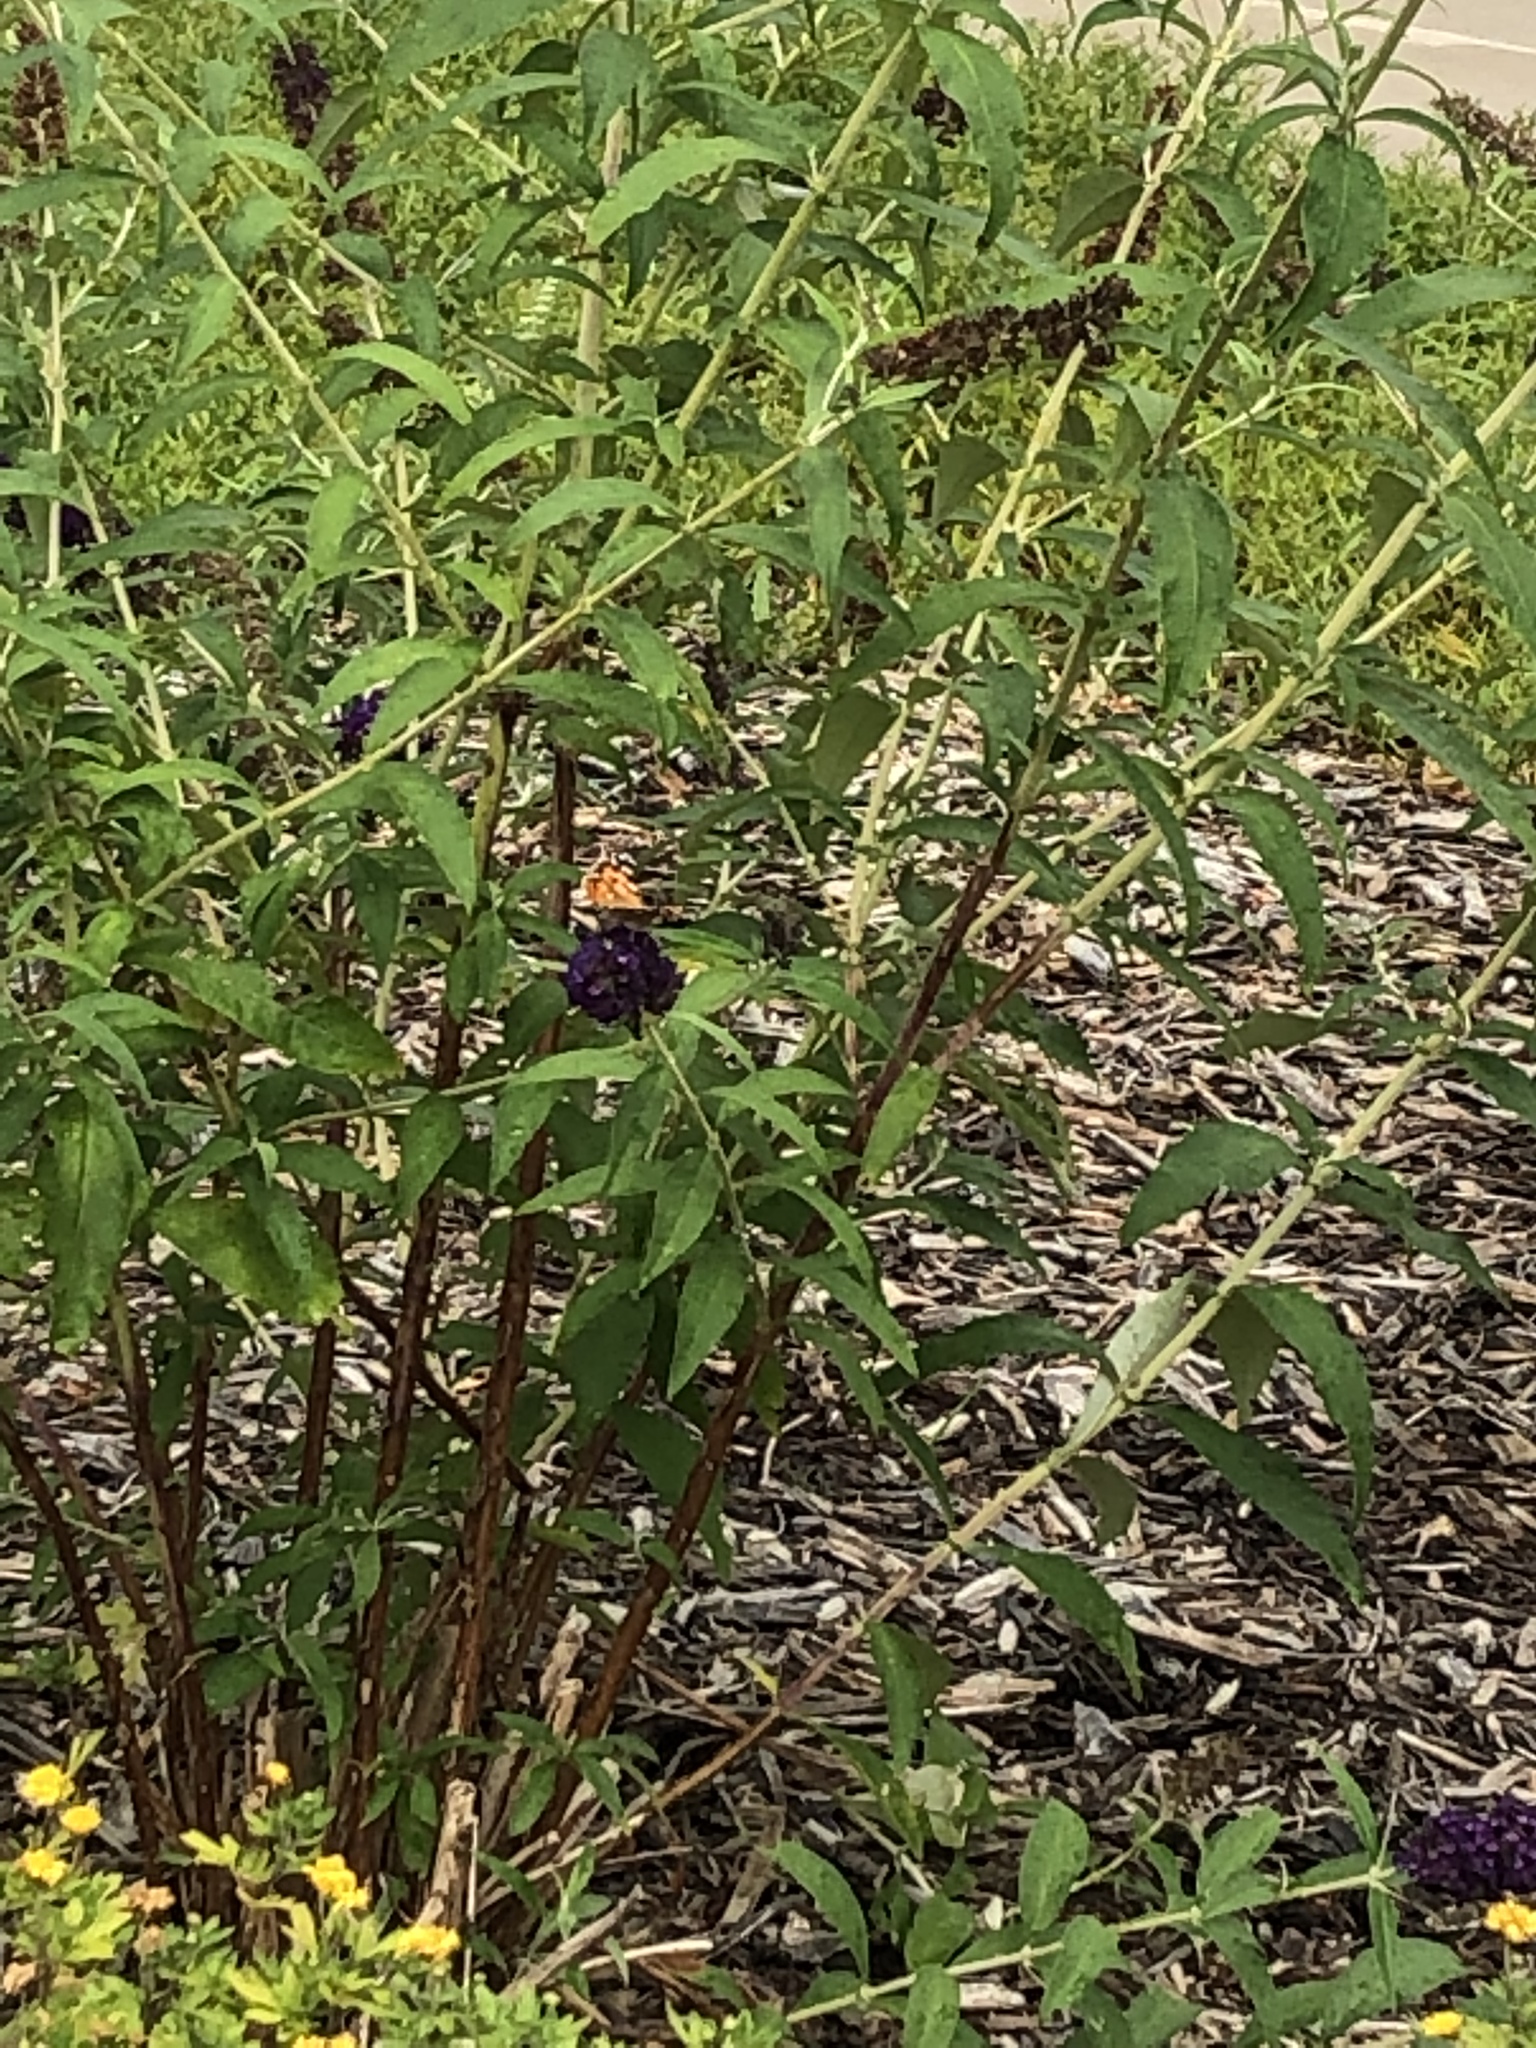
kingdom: Animalia
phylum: Arthropoda
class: Insecta
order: Lepidoptera
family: Nymphalidae
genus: Vanessa
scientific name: Vanessa cardui
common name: Painted lady
